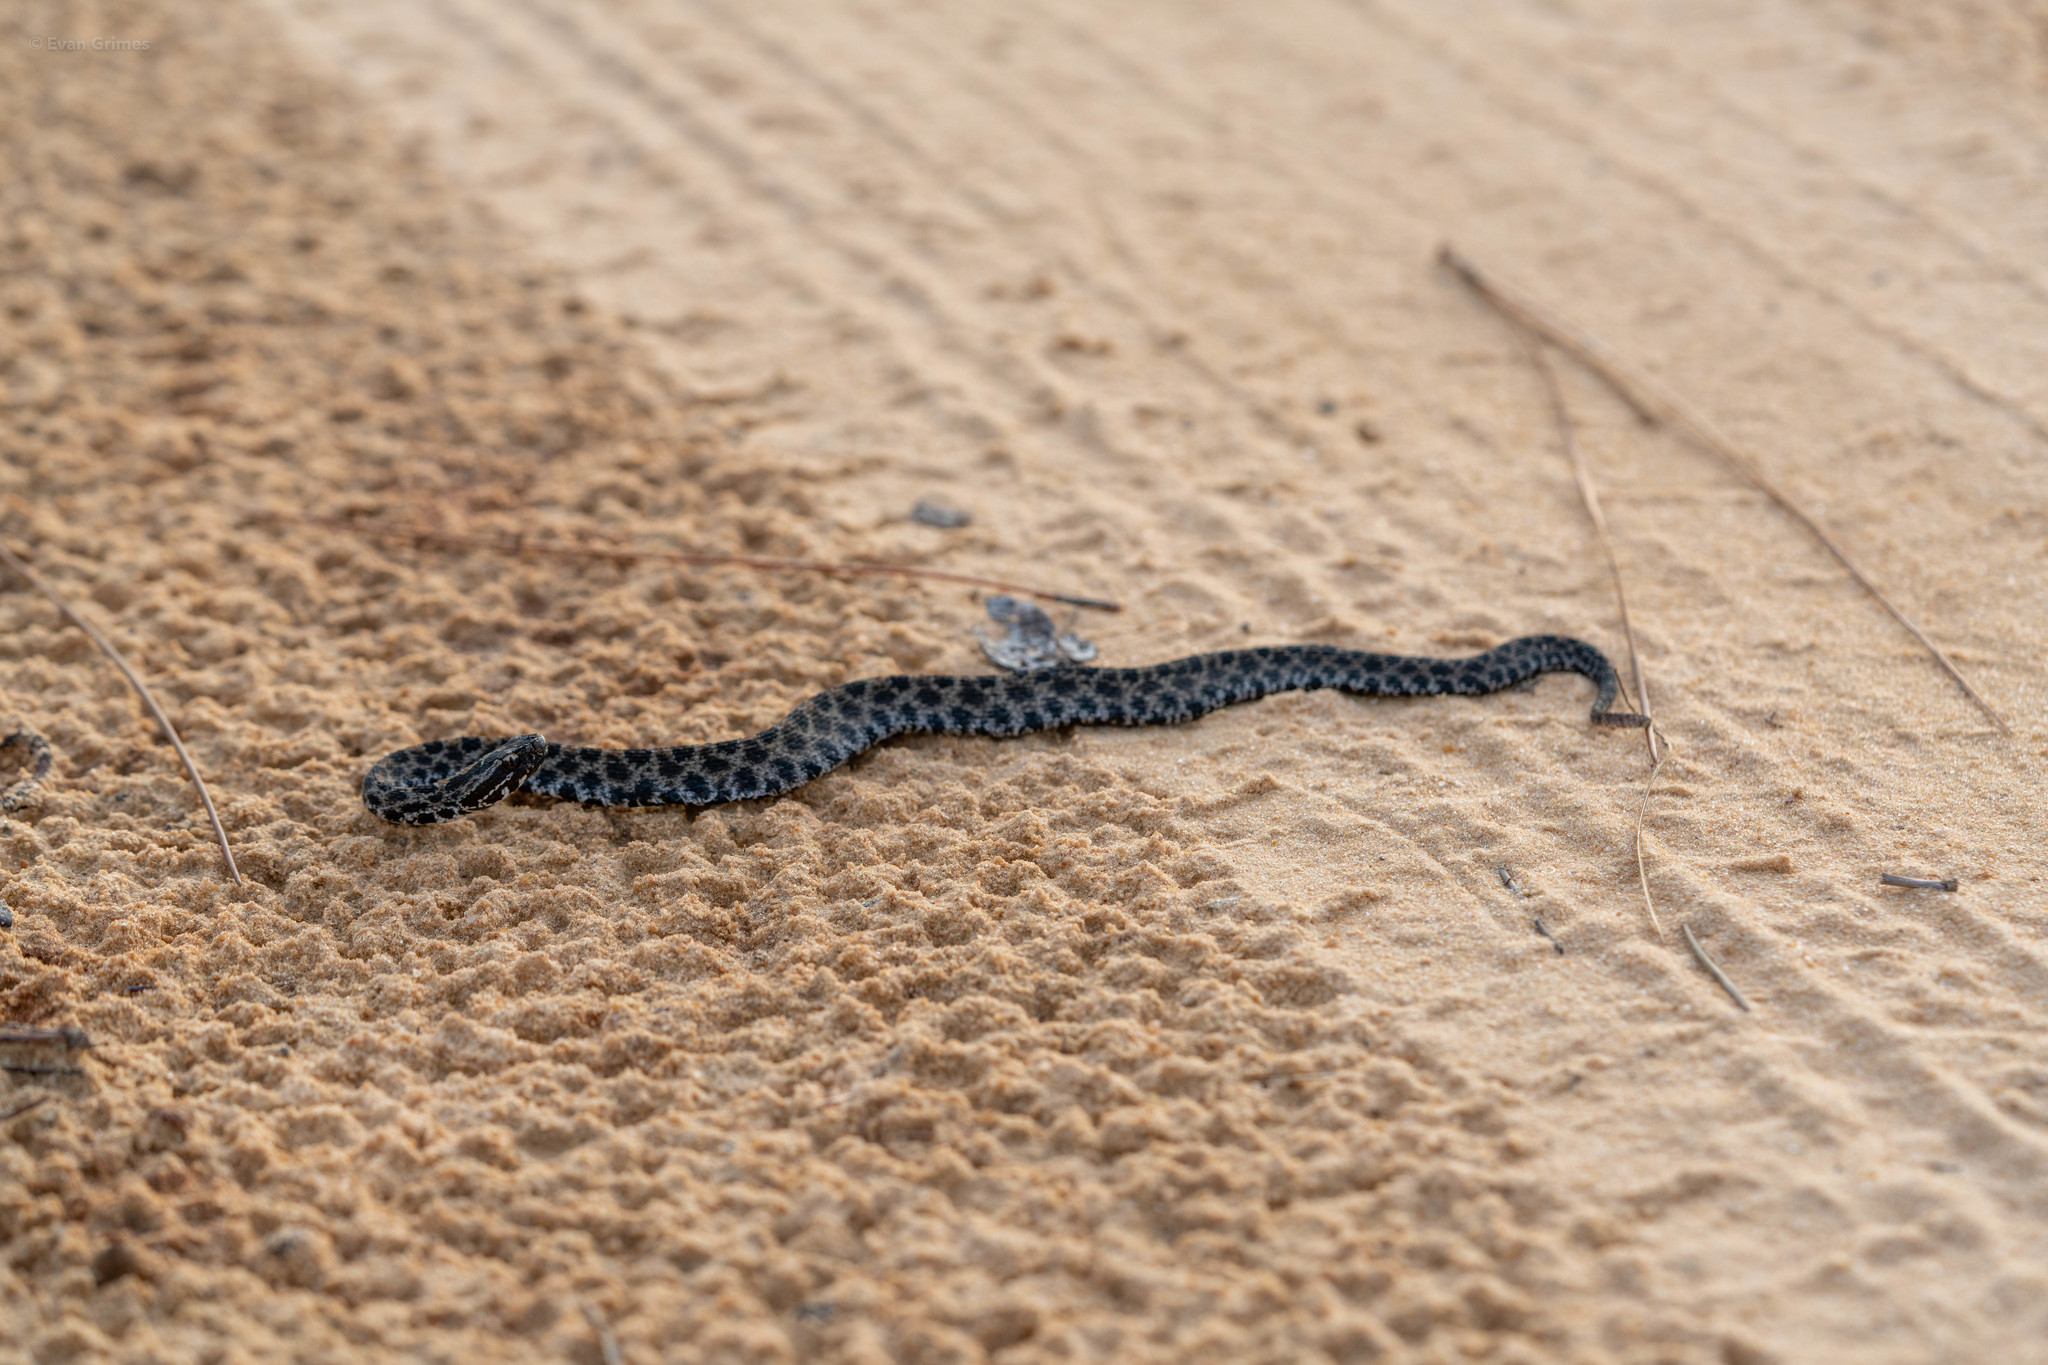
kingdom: Animalia
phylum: Chordata
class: Squamata
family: Viperidae
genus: Sistrurus
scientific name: Sistrurus miliarius
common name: Pygmy rattlesnake
